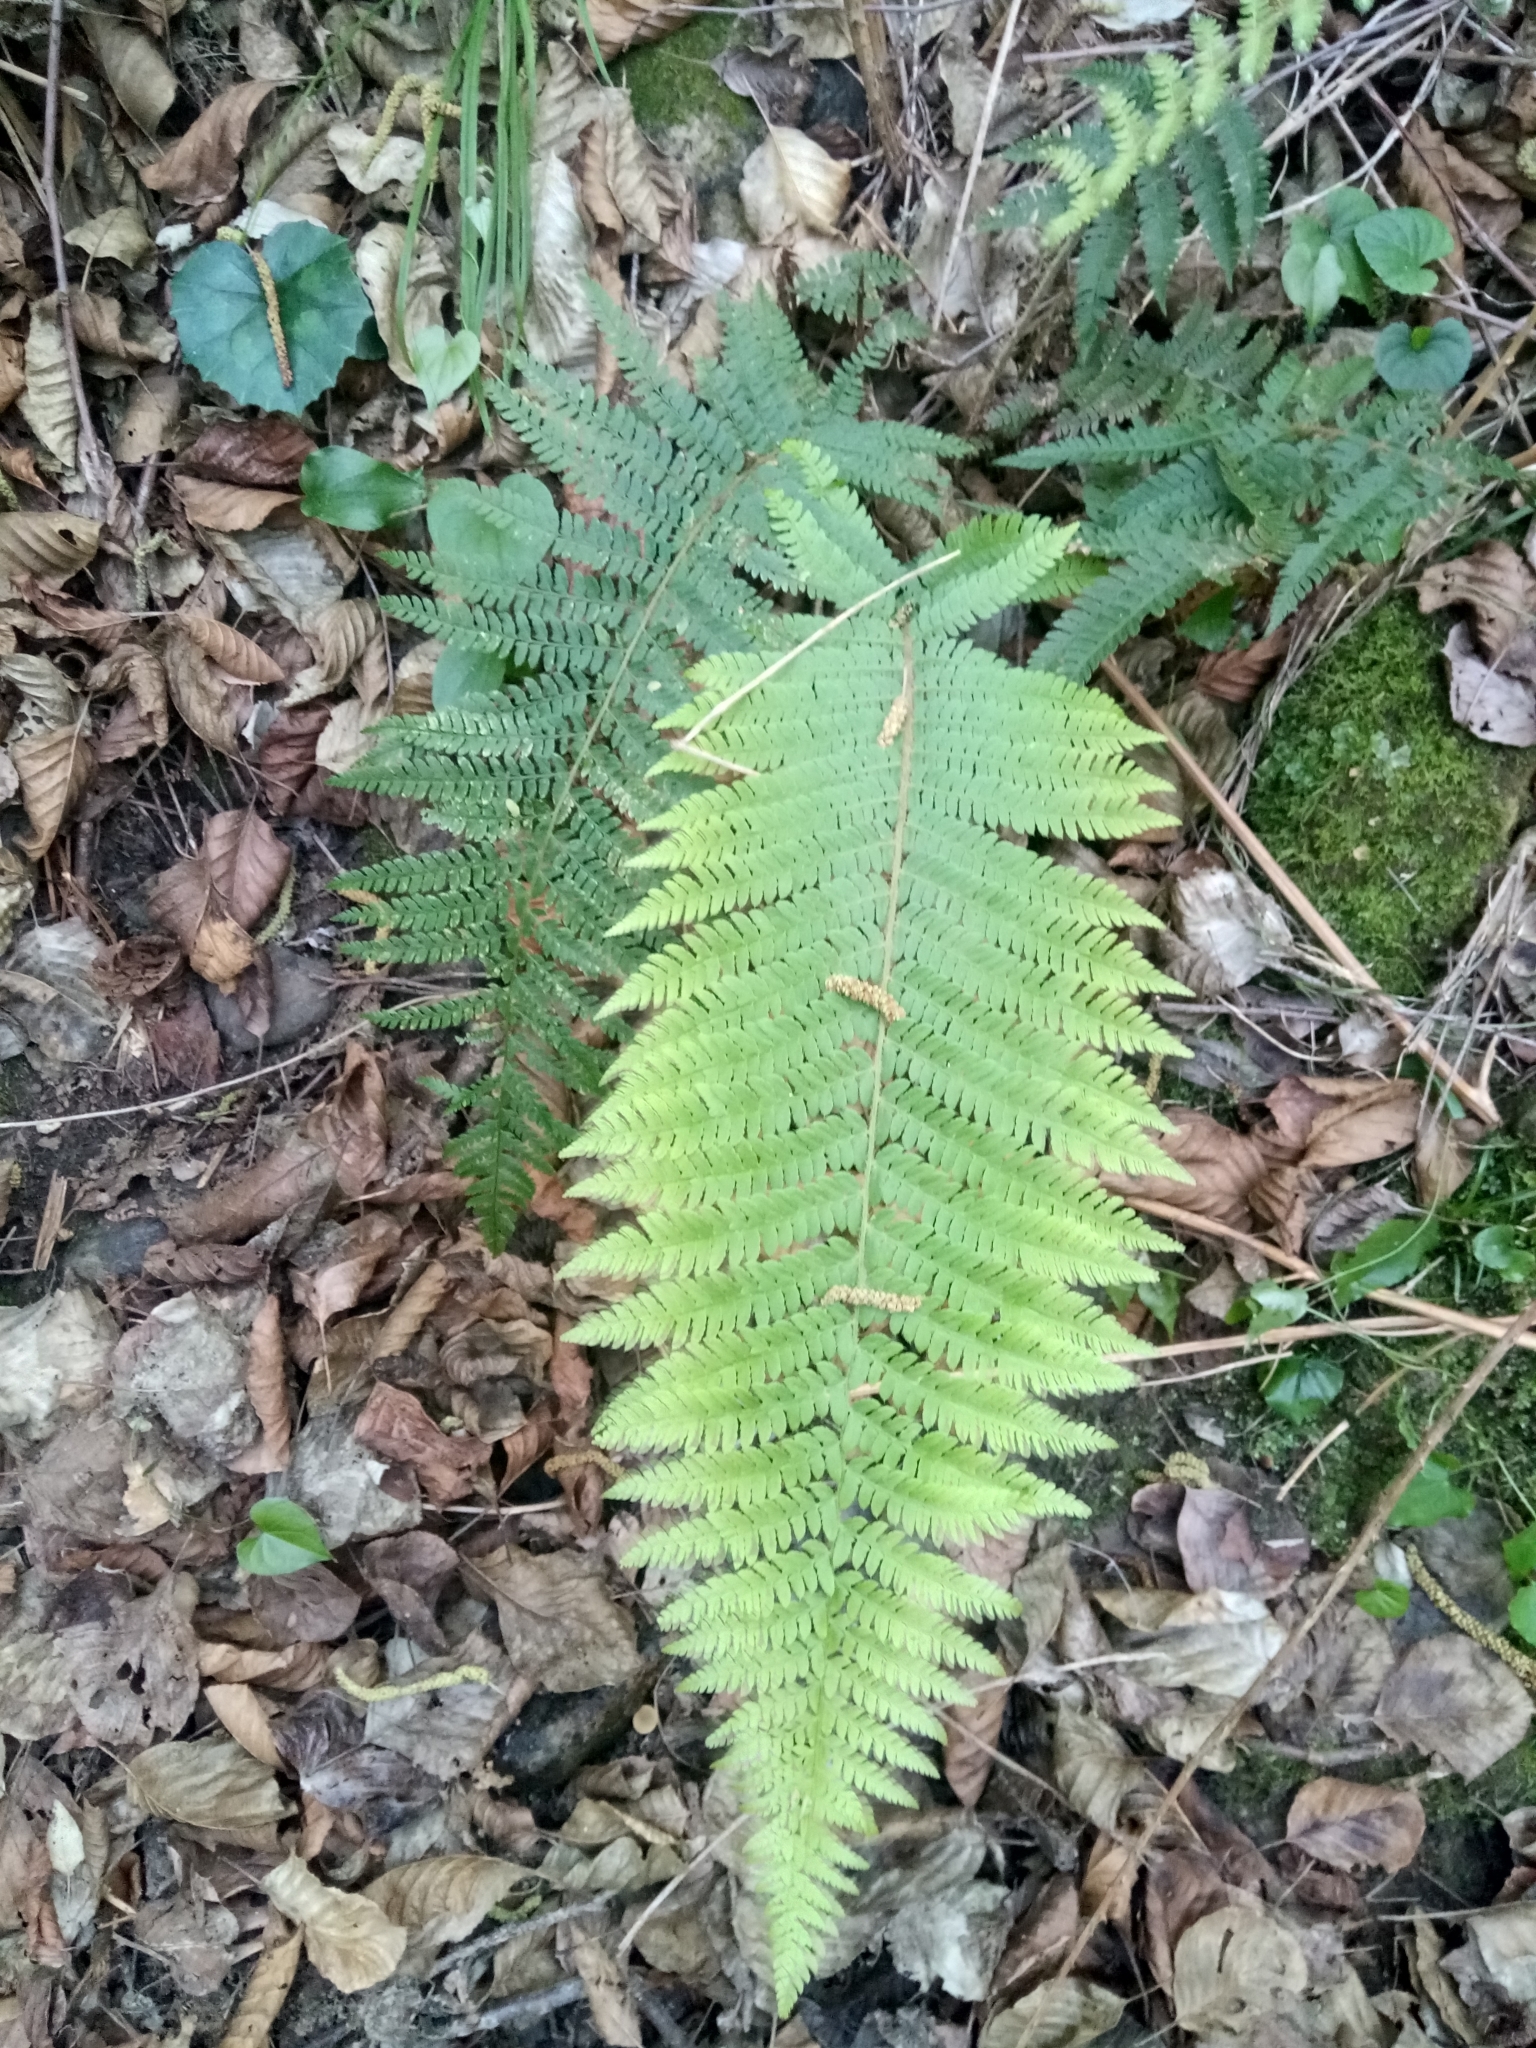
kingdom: Plantae
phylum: Tracheophyta
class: Polypodiopsida
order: Polypodiales
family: Dryopteridaceae
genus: Polystichum
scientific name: Polystichum setiferum
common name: Soft shield-fern
